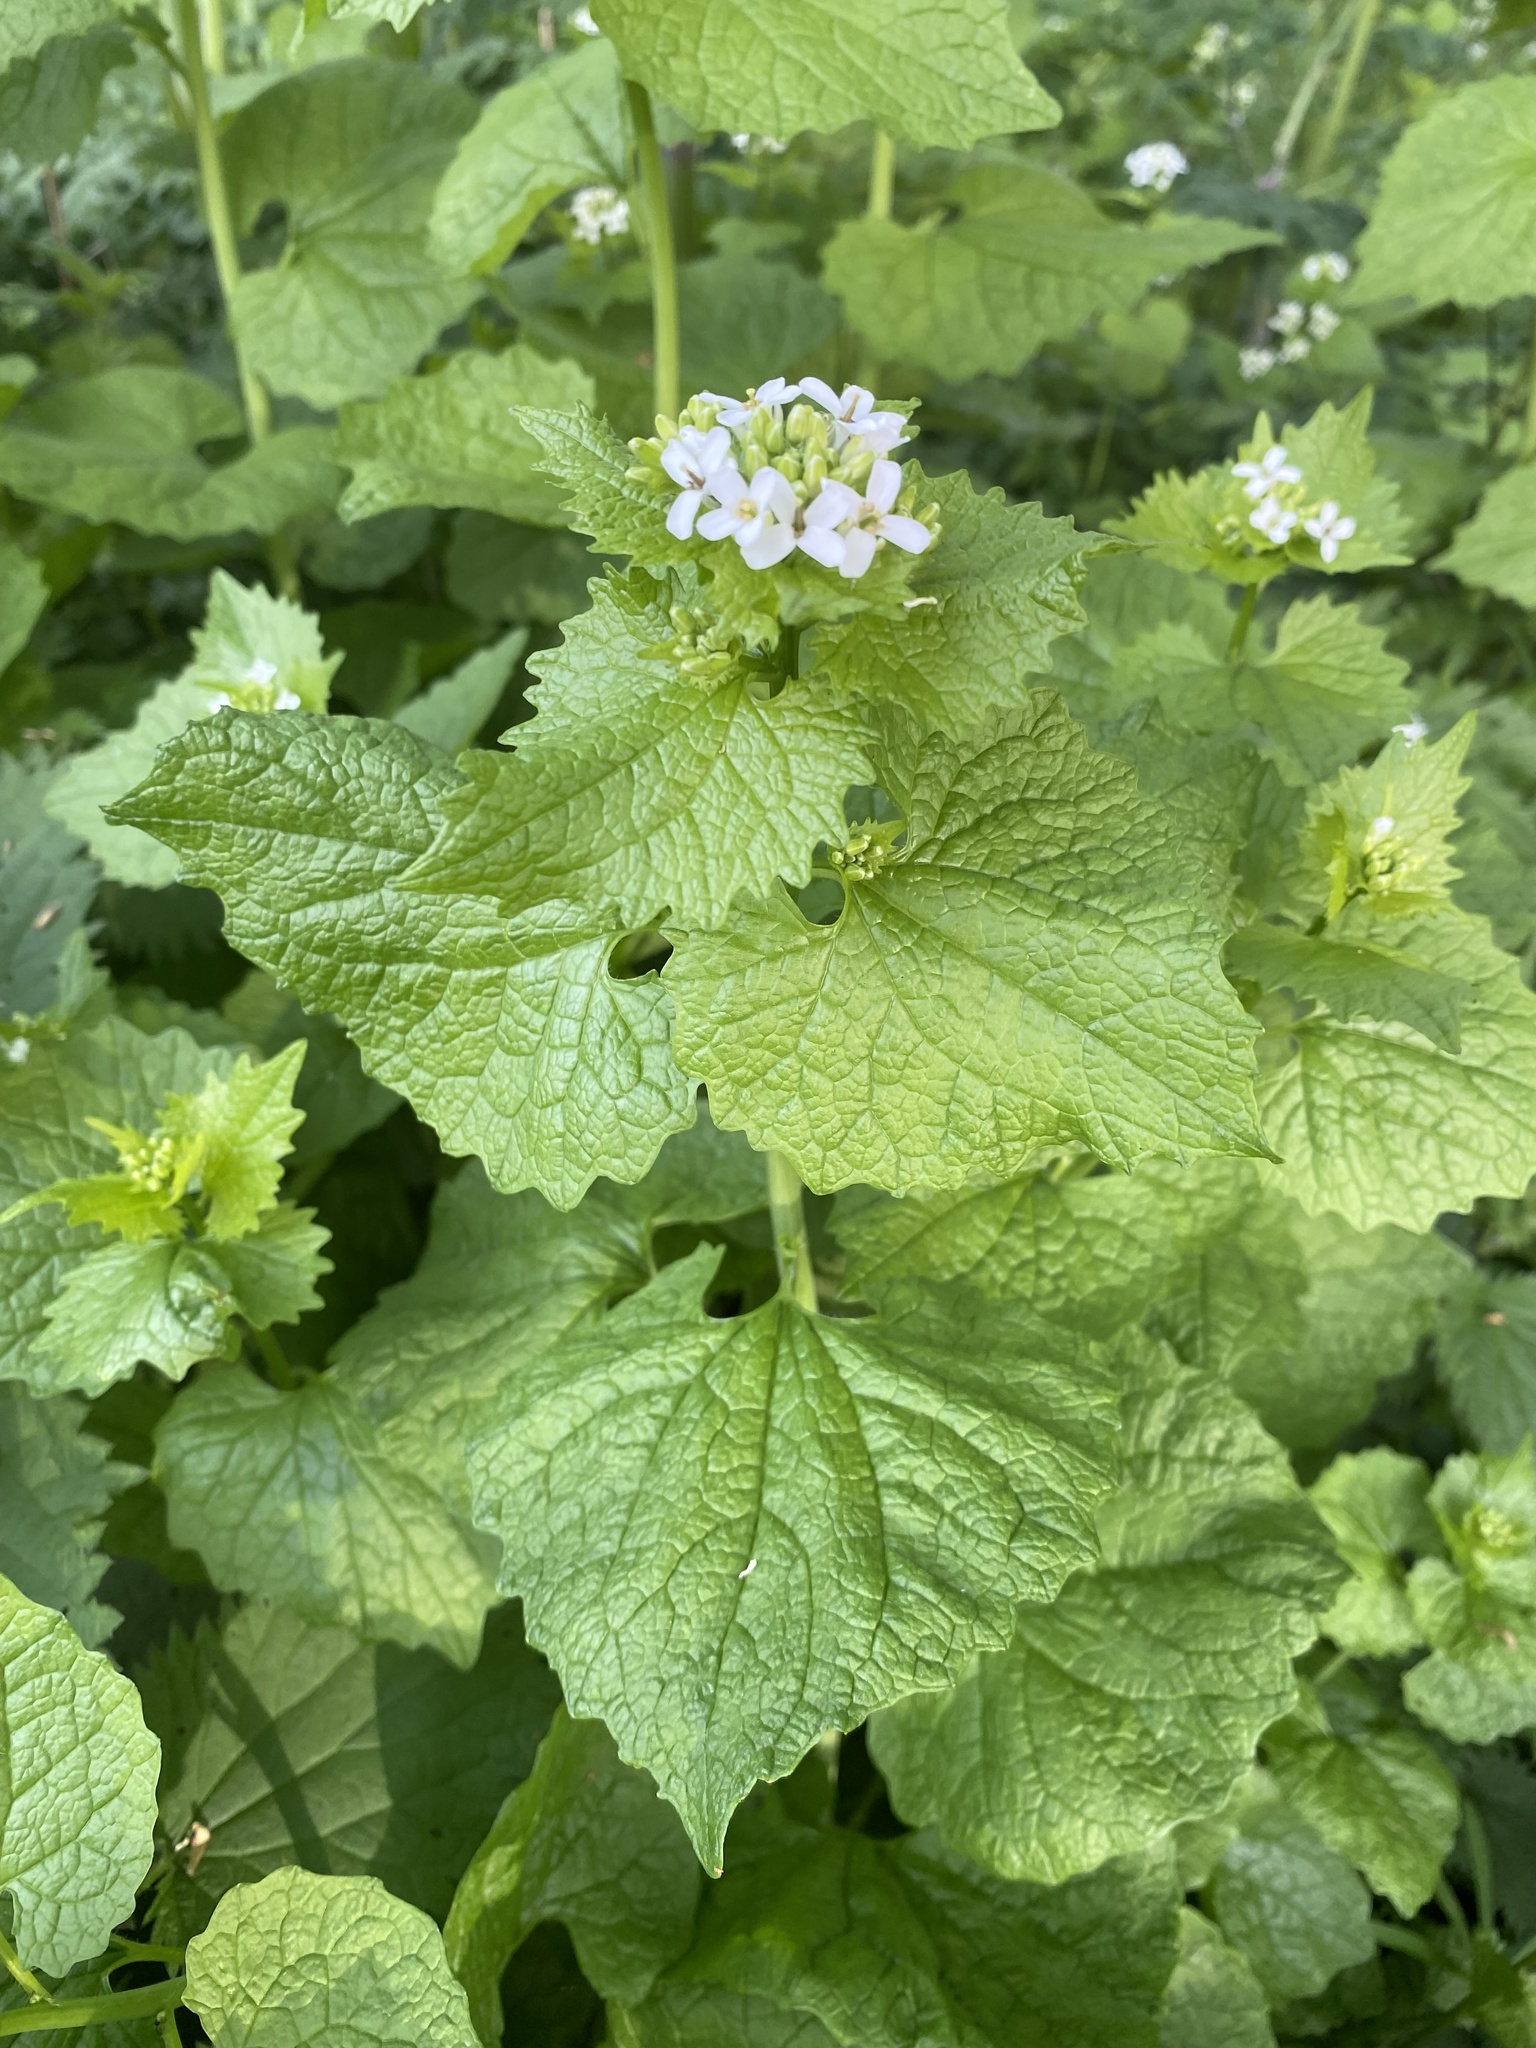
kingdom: Plantae
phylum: Tracheophyta
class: Magnoliopsida
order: Brassicales
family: Brassicaceae
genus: Alliaria
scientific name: Alliaria petiolata
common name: Garlic mustard
